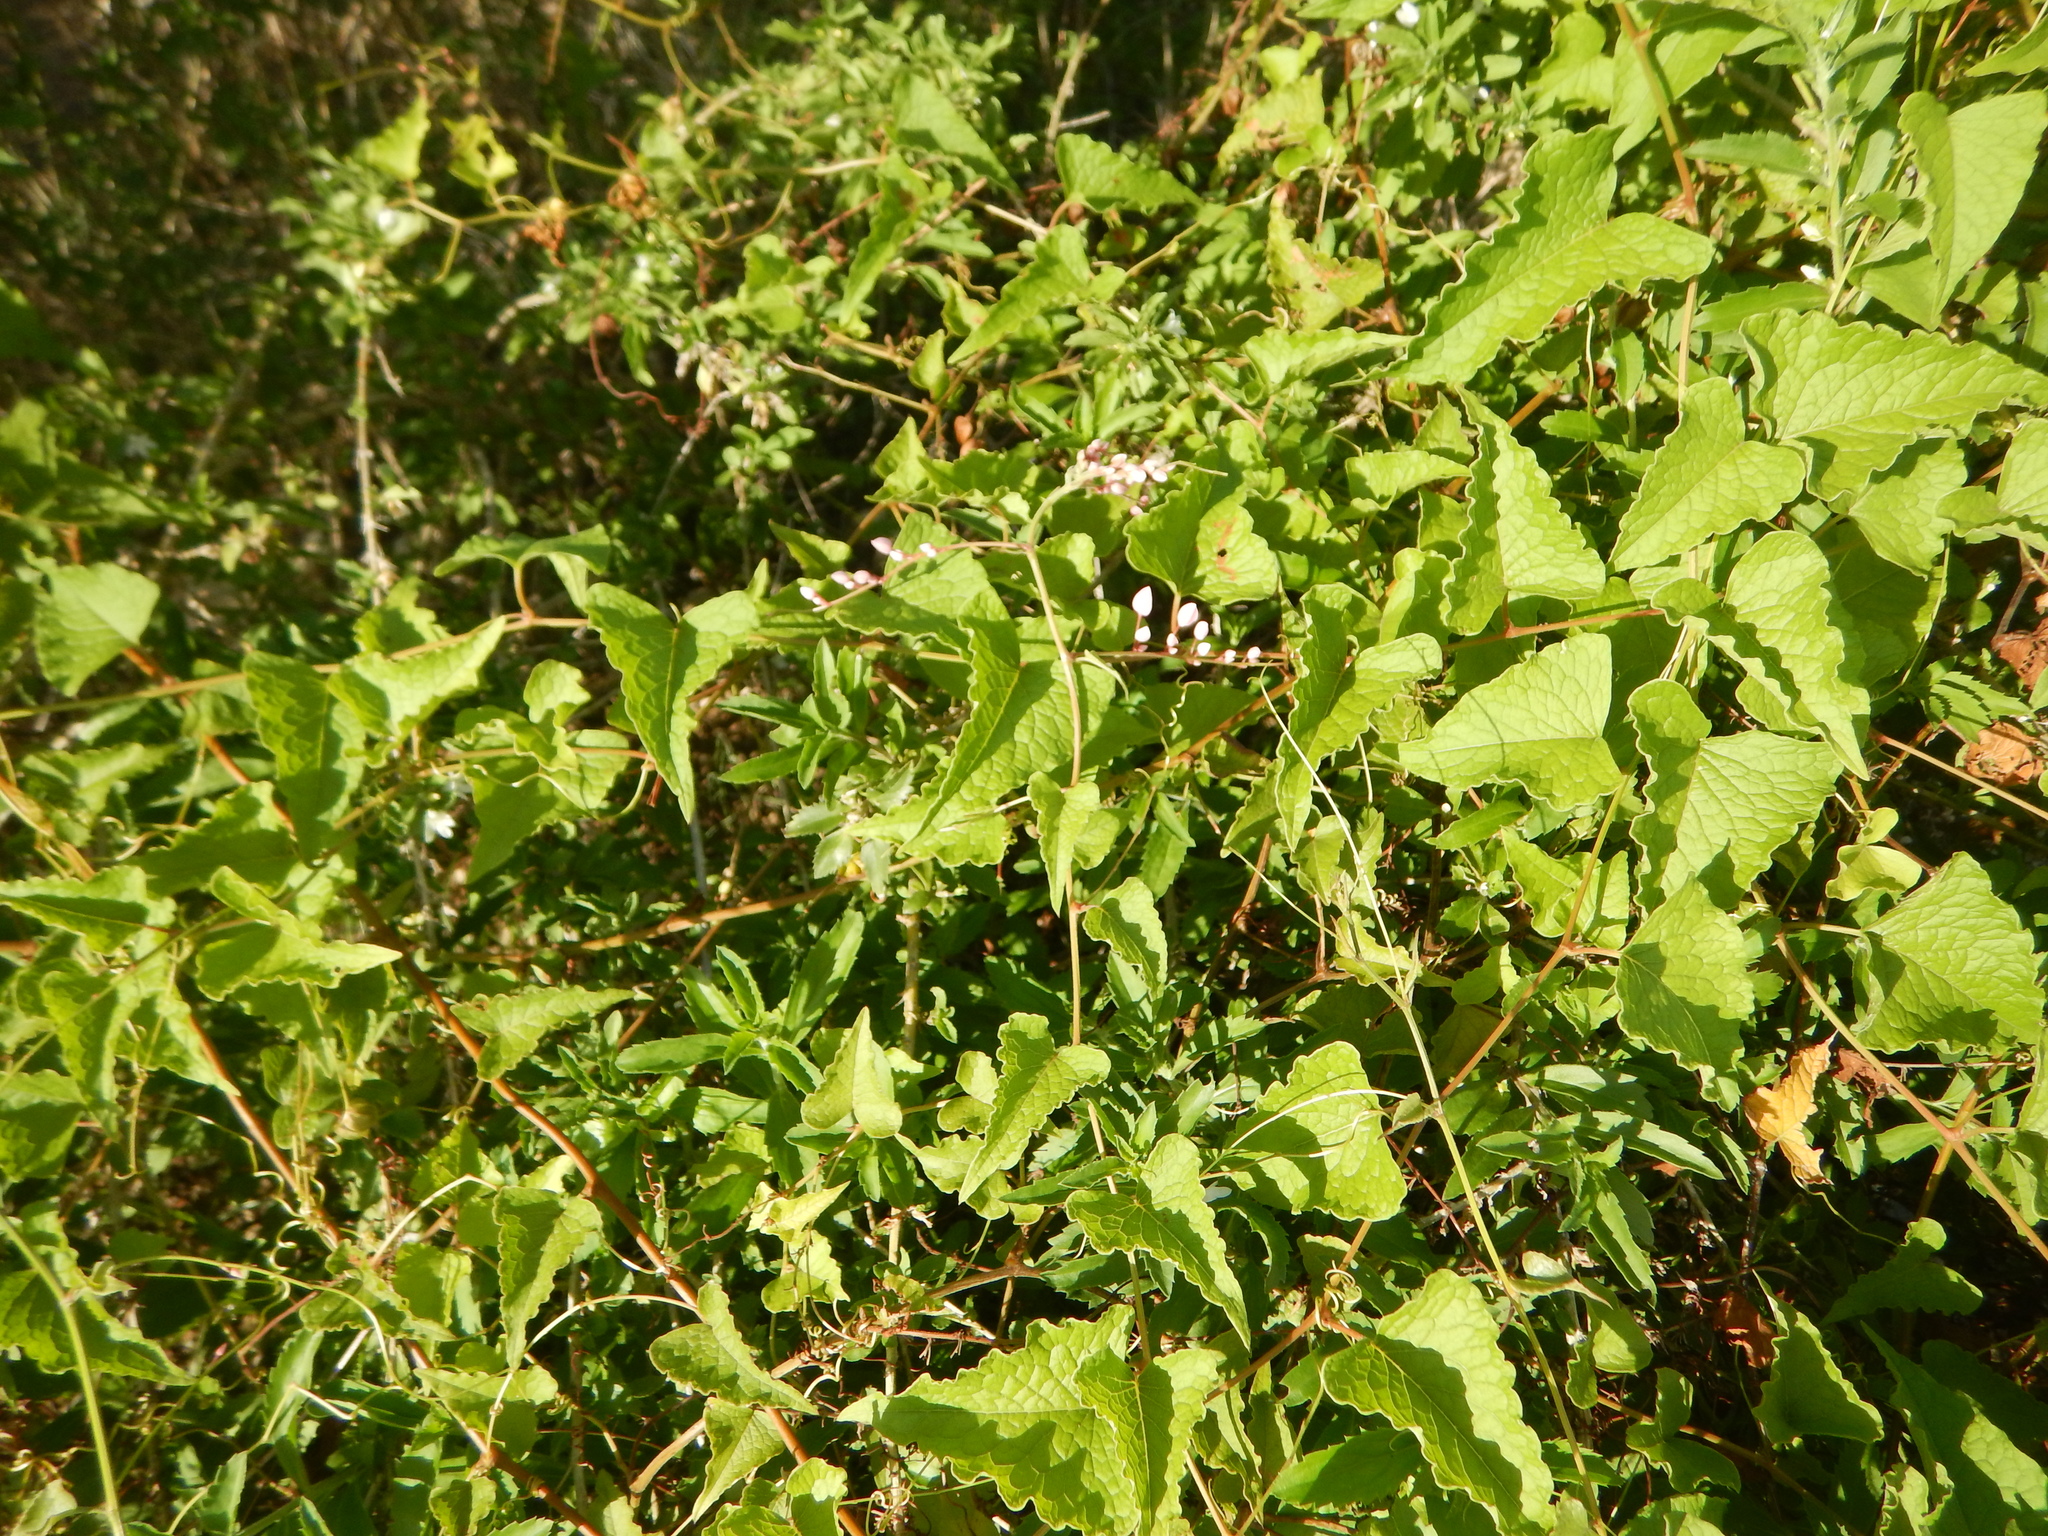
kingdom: Plantae
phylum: Tracheophyta
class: Magnoliopsida
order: Caryophyllales
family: Polygonaceae
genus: Antigonon
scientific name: Antigonon leptopus
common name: Coral vine
